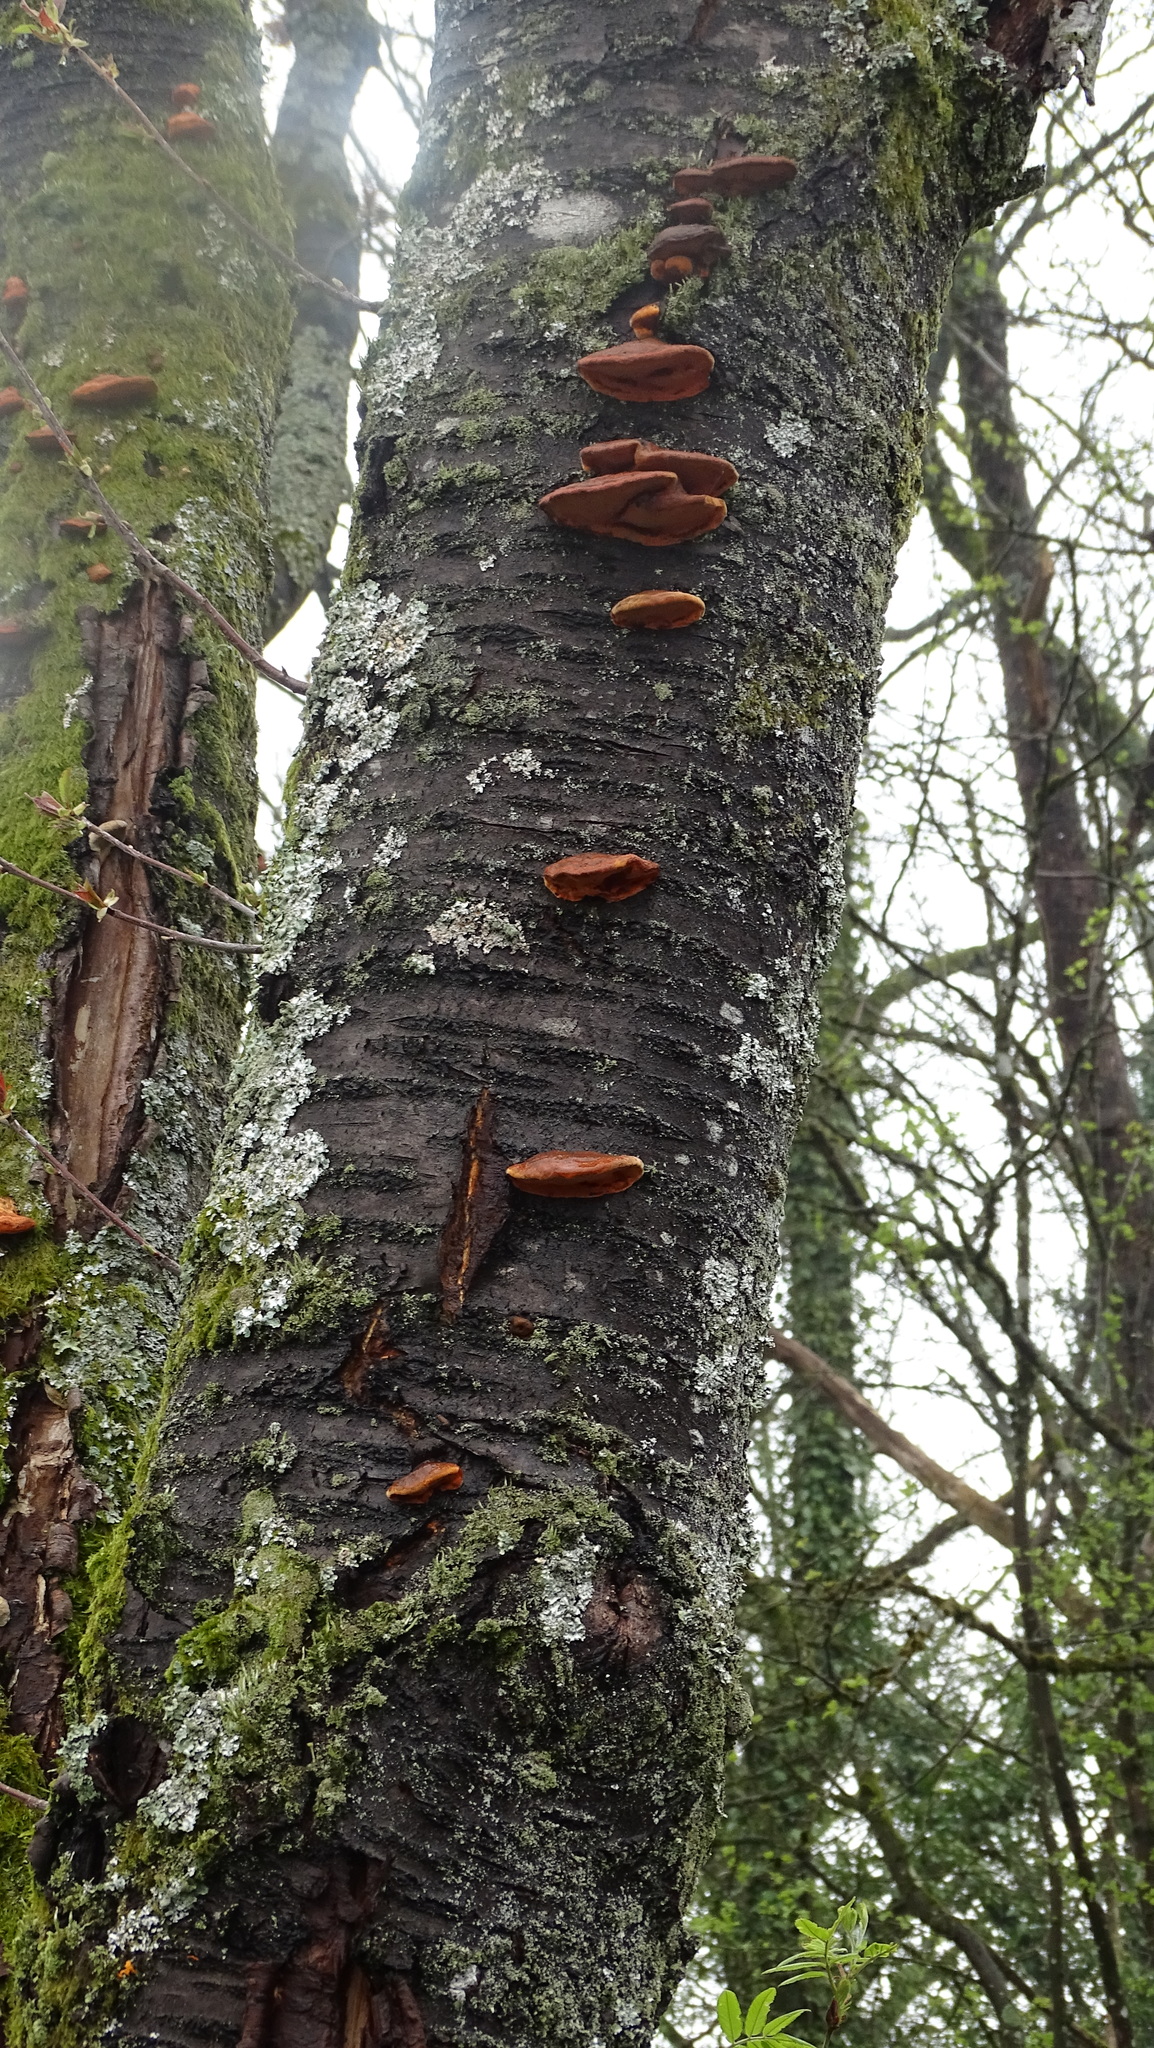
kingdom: Fungi
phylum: Basidiomycota
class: Agaricomycetes
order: Polyporales
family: Polyporaceae
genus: Trametes
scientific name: Trametes cinnabarina
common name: Northern cinnabar polypore
